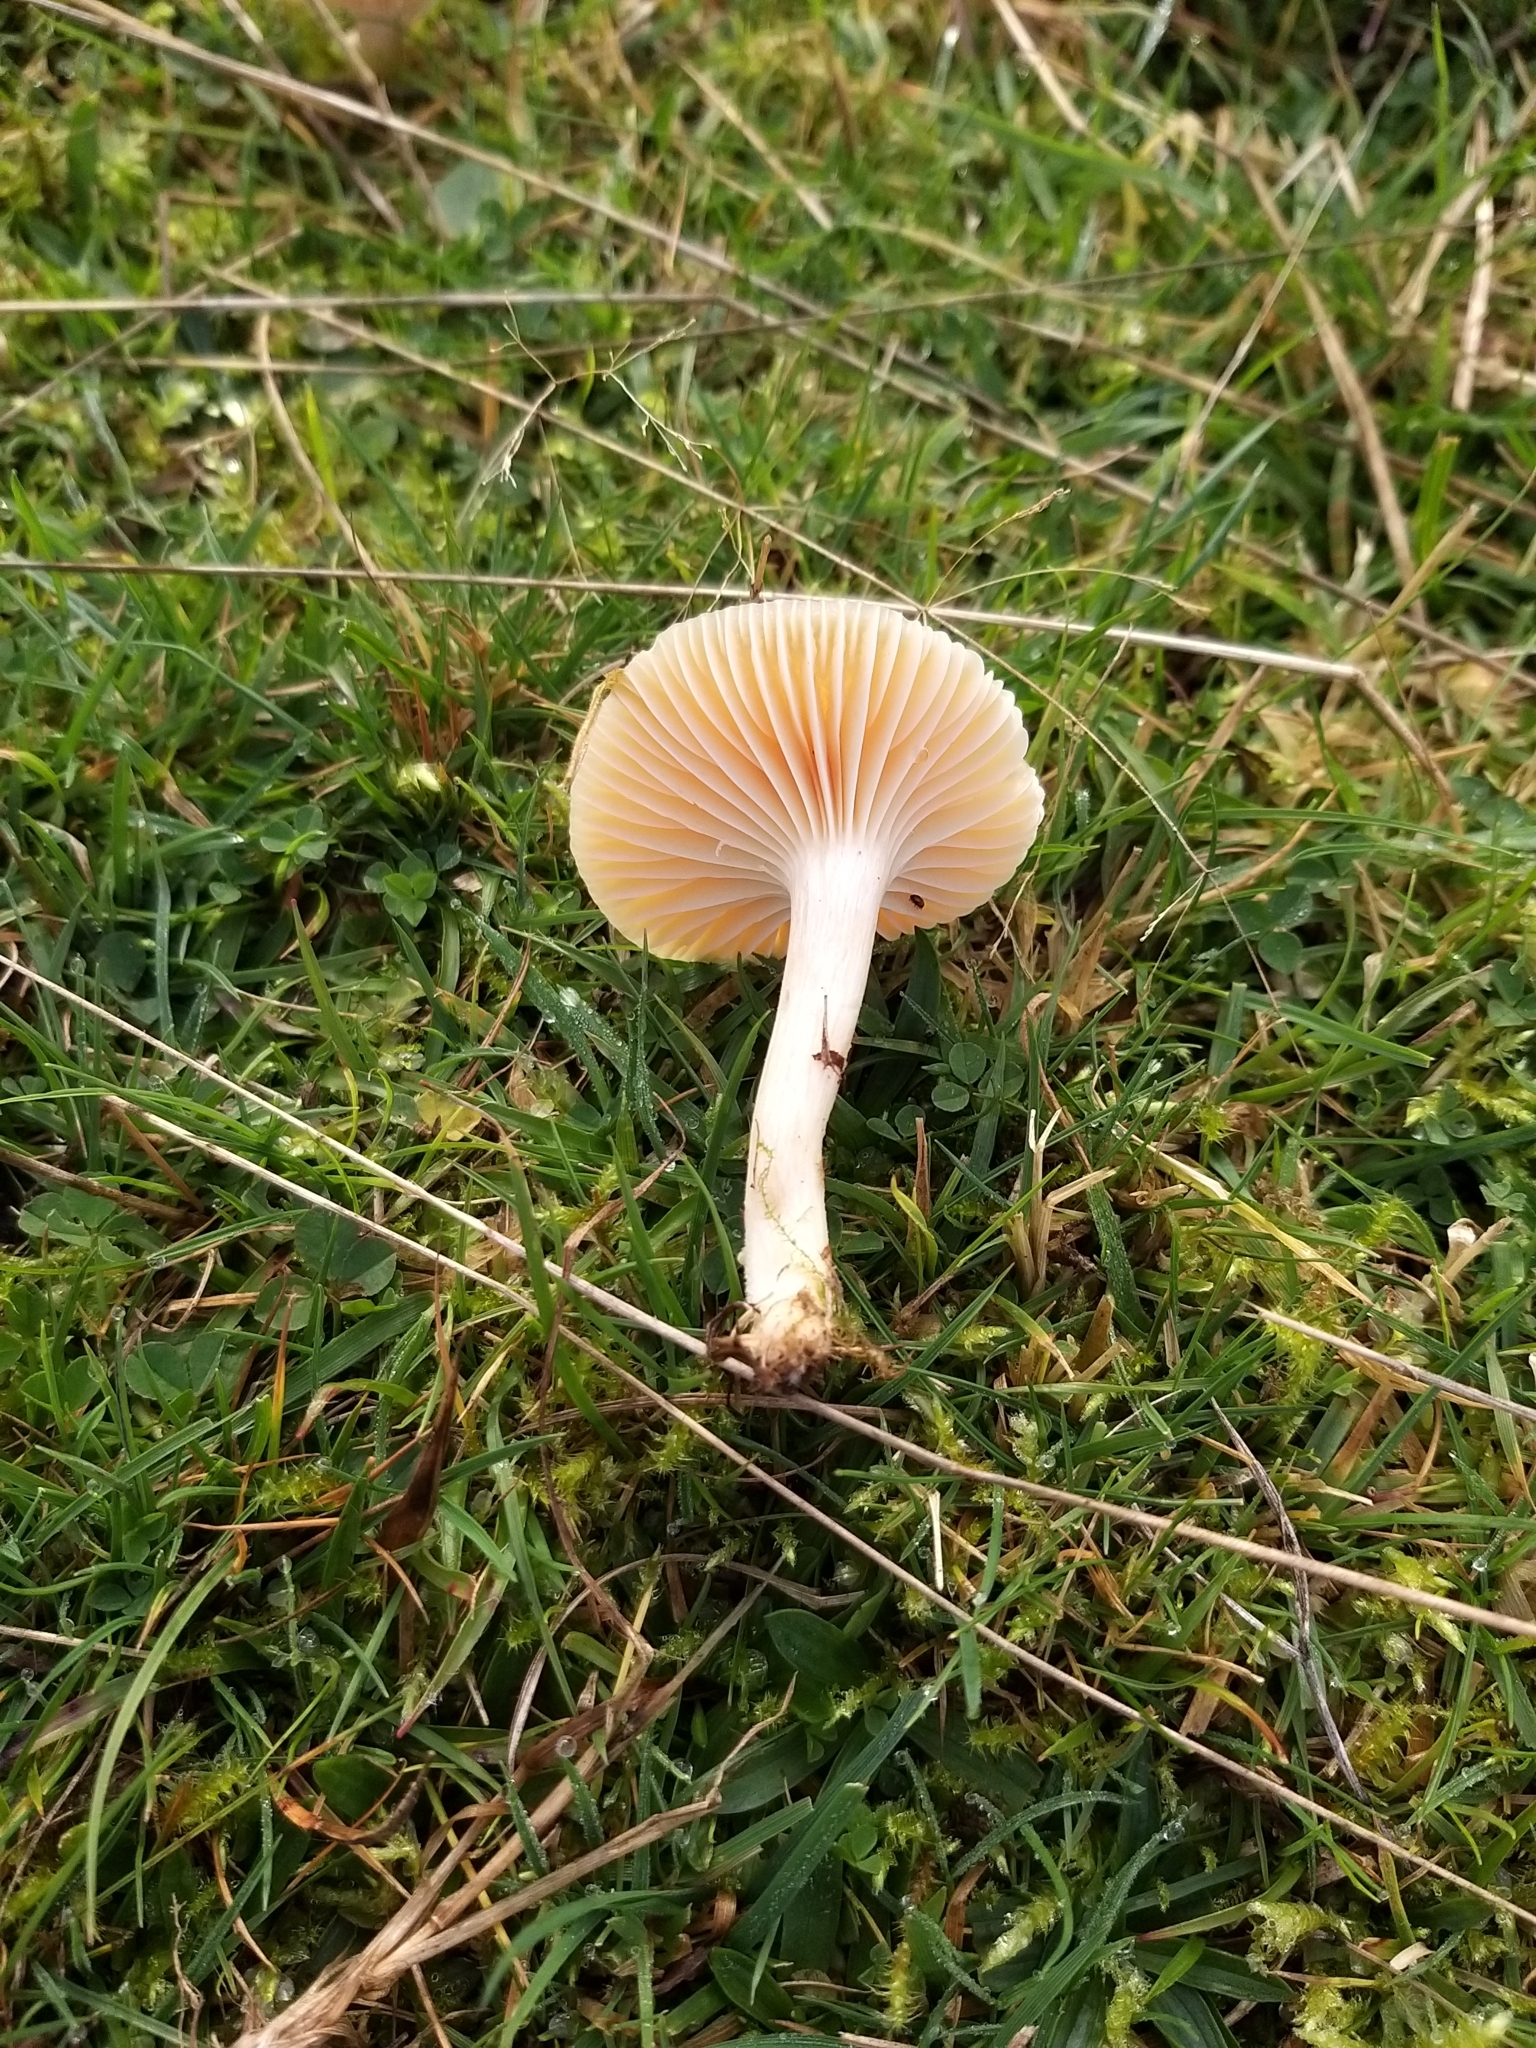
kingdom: Fungi
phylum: Basidiomycota
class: Agaricomycetes
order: Agaricales
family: Hygrophoraceae
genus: Cuphophyllus
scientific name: Cuphophyllus pratensis
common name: Meadow waxcap
